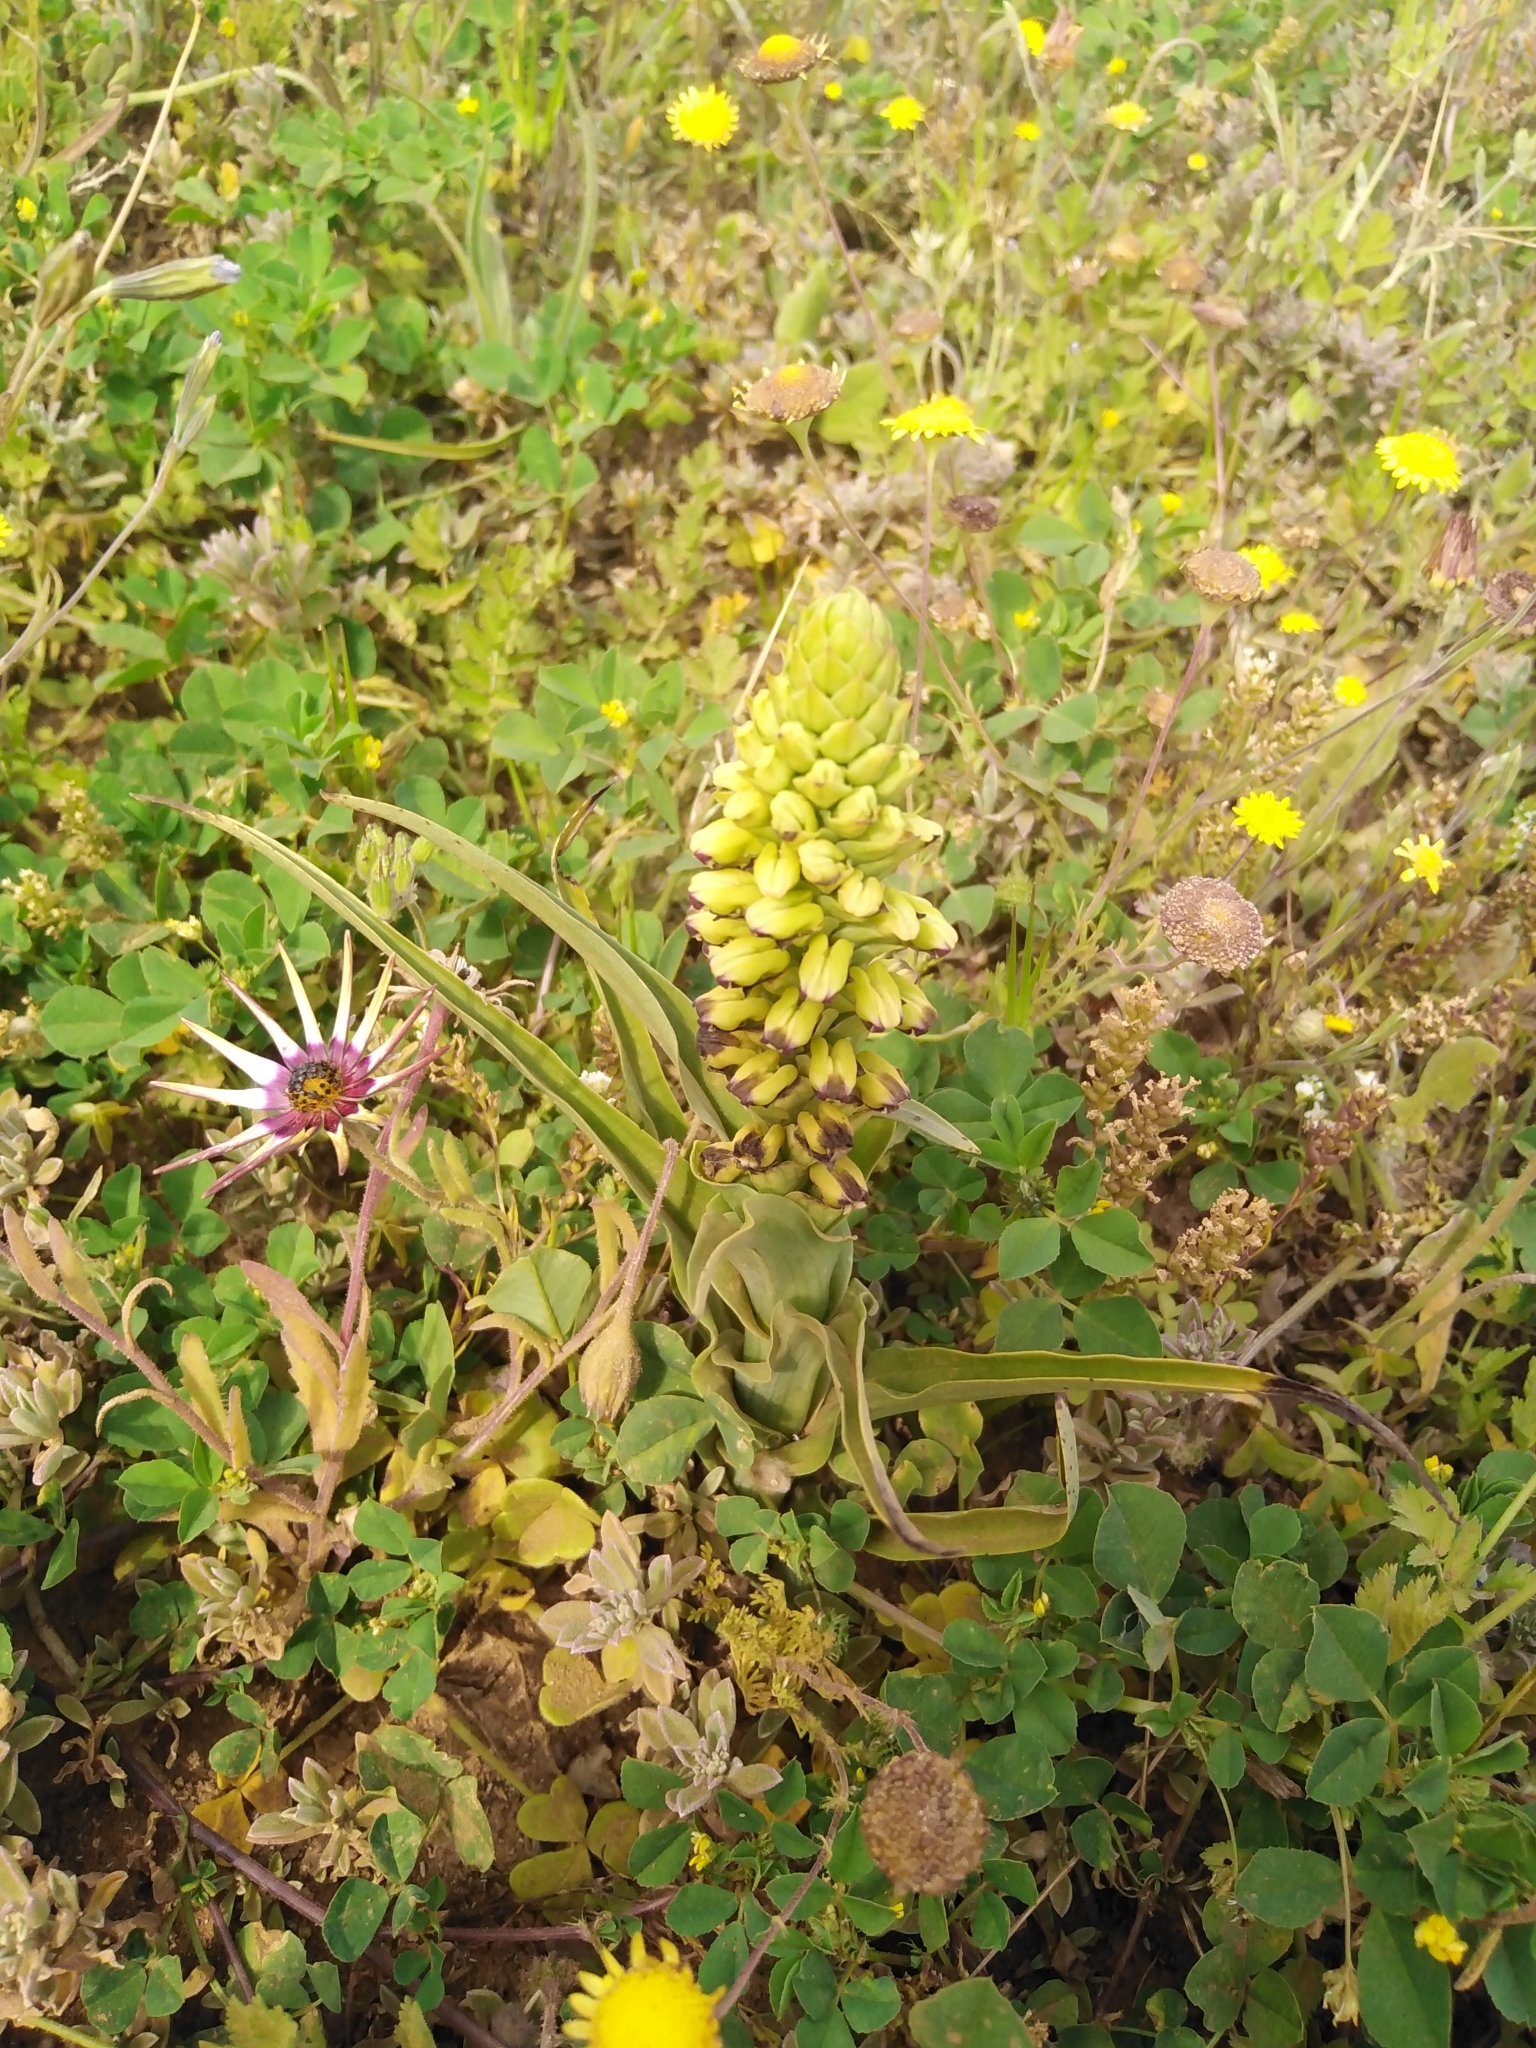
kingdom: Plantae
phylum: Tracheophyta
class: Liliopsida
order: Asparagales
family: Orchidaceae
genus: Corycium
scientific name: Corycium orobanchoides
